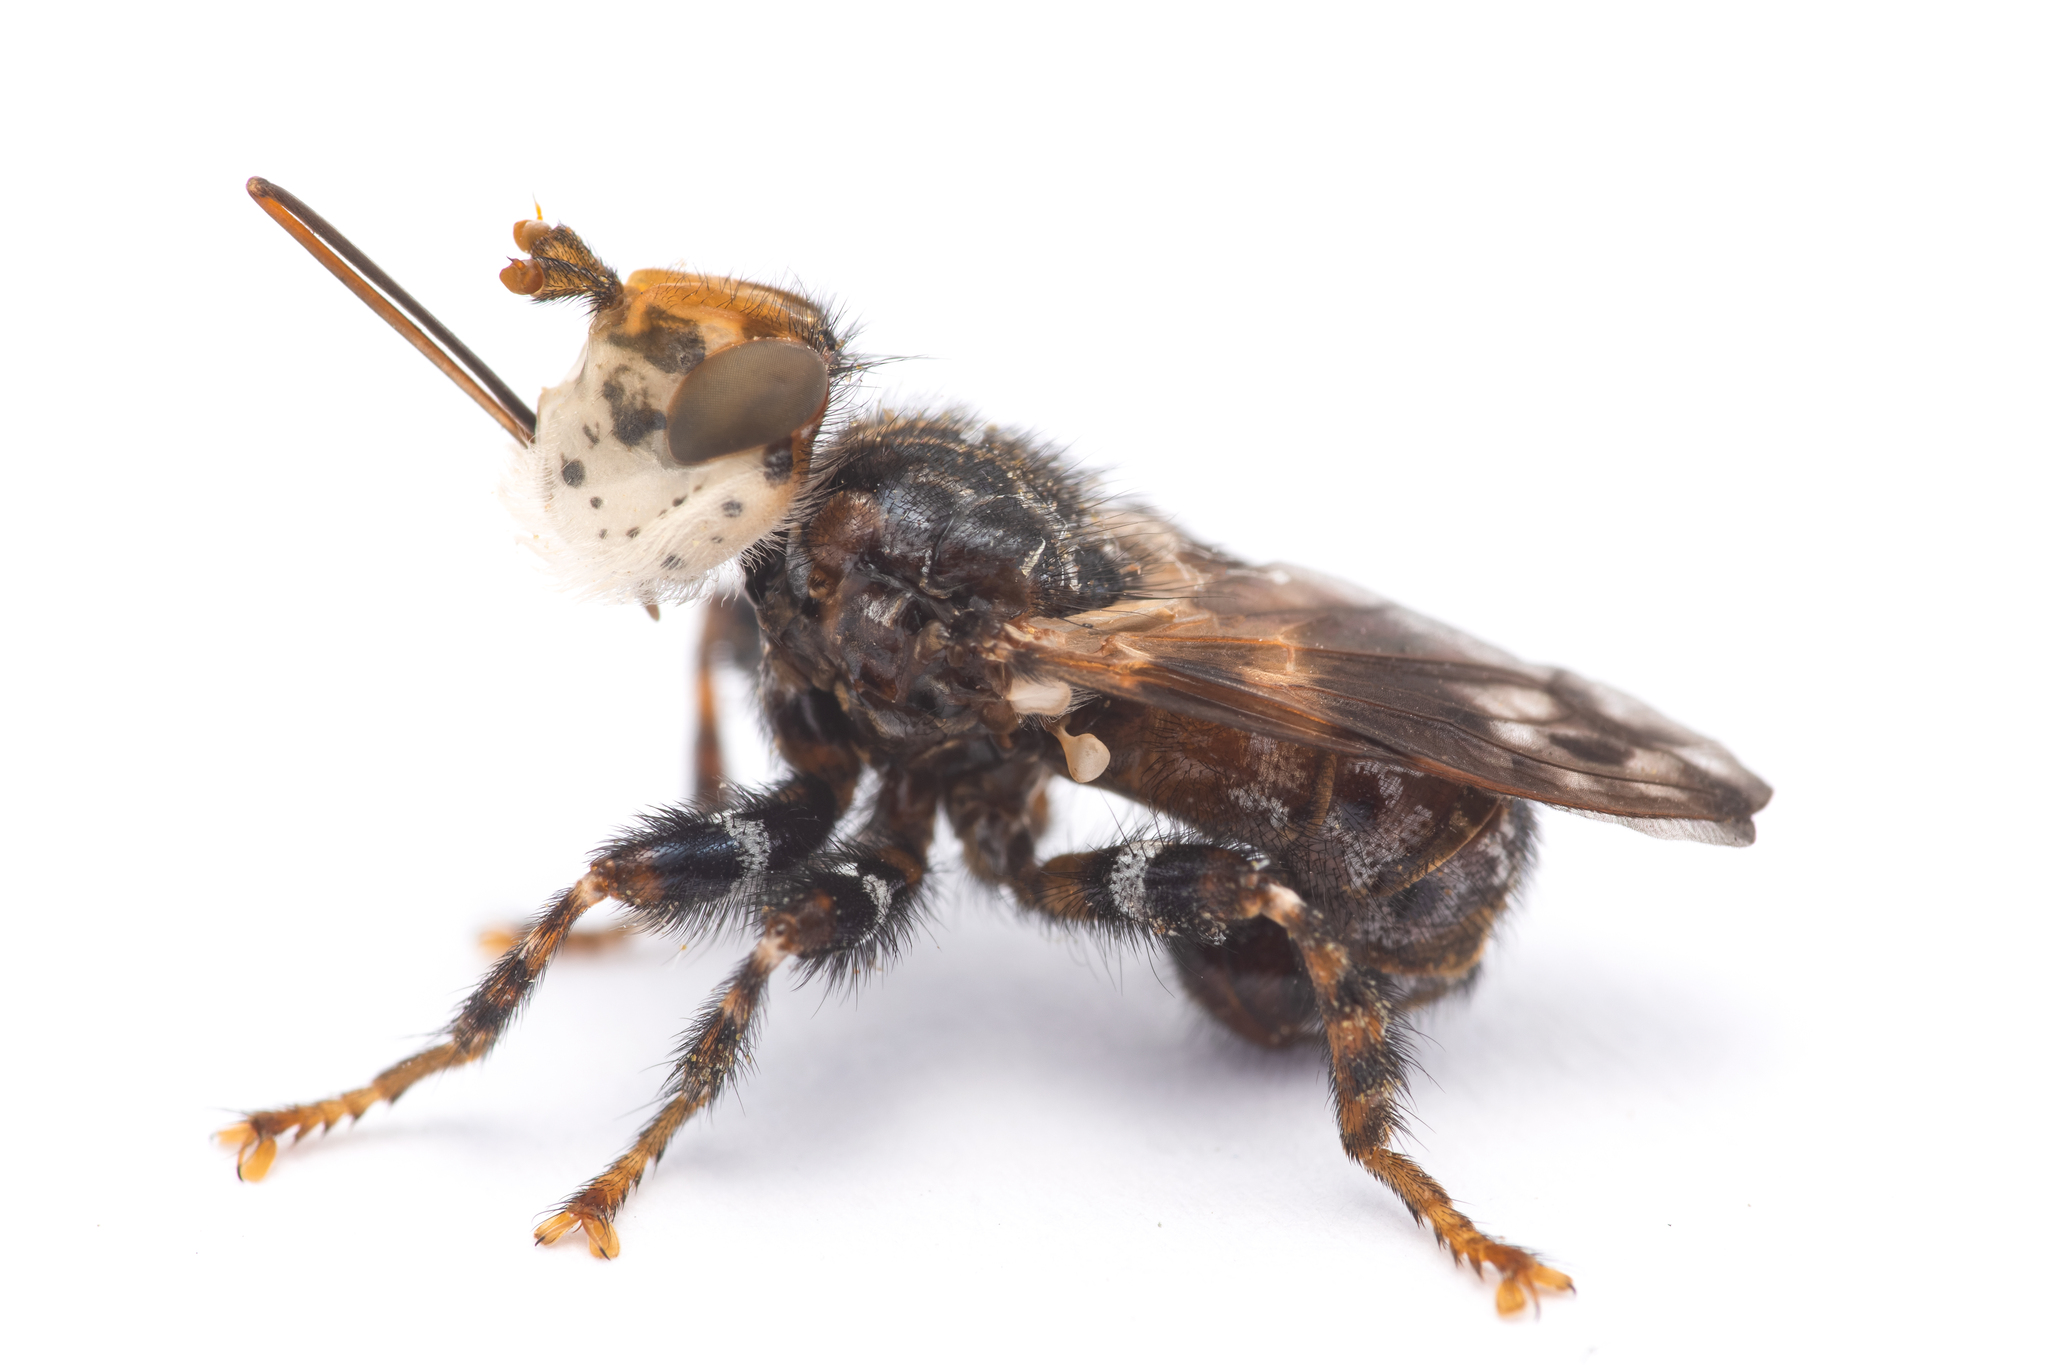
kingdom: Animalia
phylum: Arthropoda
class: Insecta
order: Diptera
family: Conopidae
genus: Myopa
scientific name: Myopa picta
